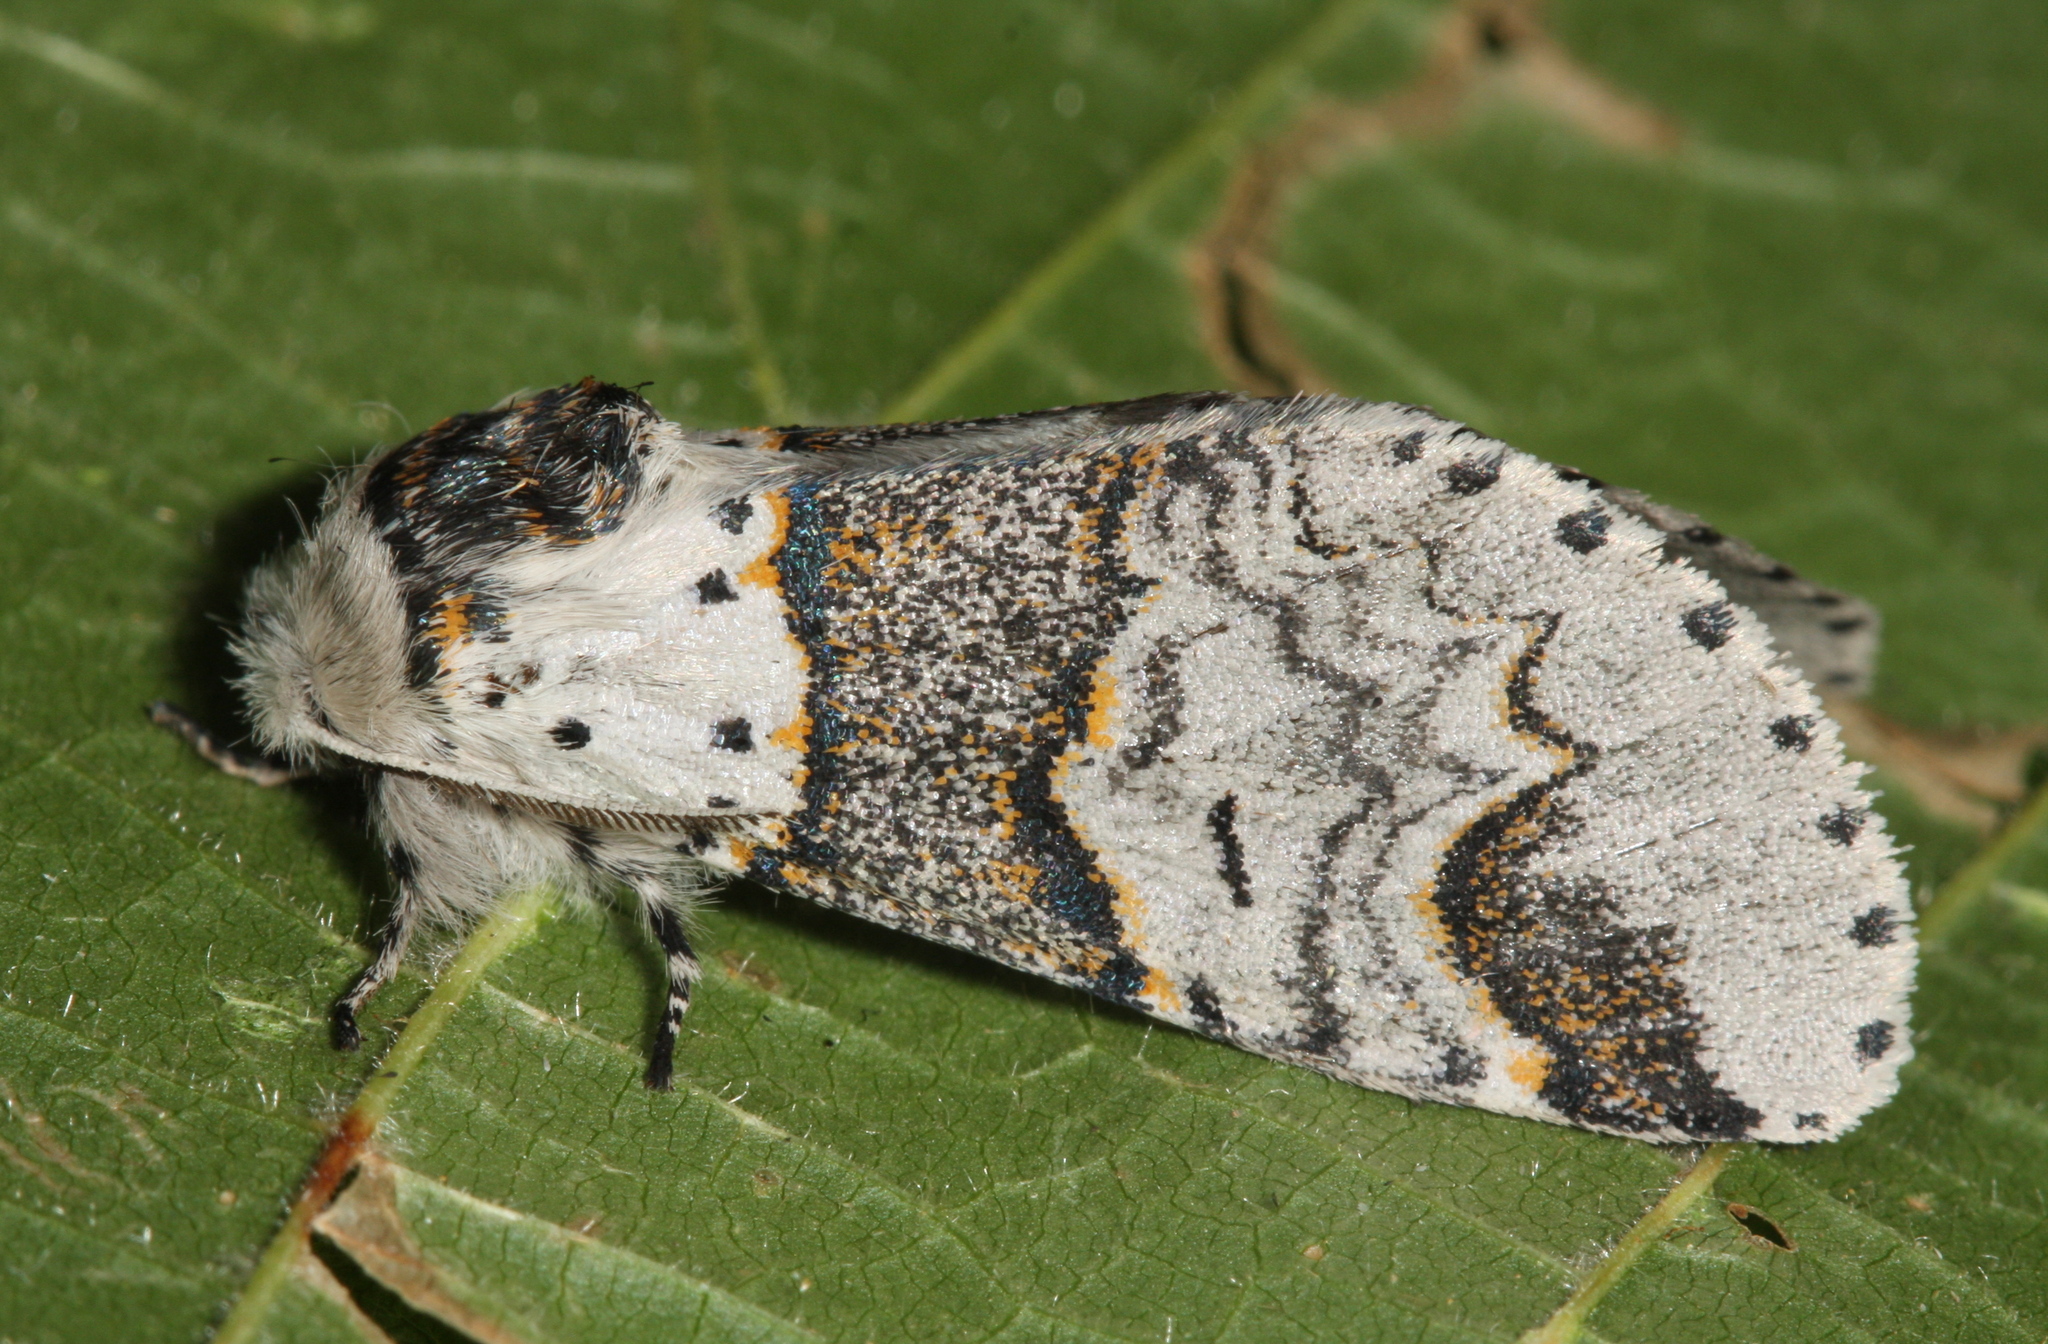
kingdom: Animalia
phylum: Arthropoda
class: Insecta
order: Lepidoptera
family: Notodontidae
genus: Furcula
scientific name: Furcula furcula
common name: Sallow kitten
